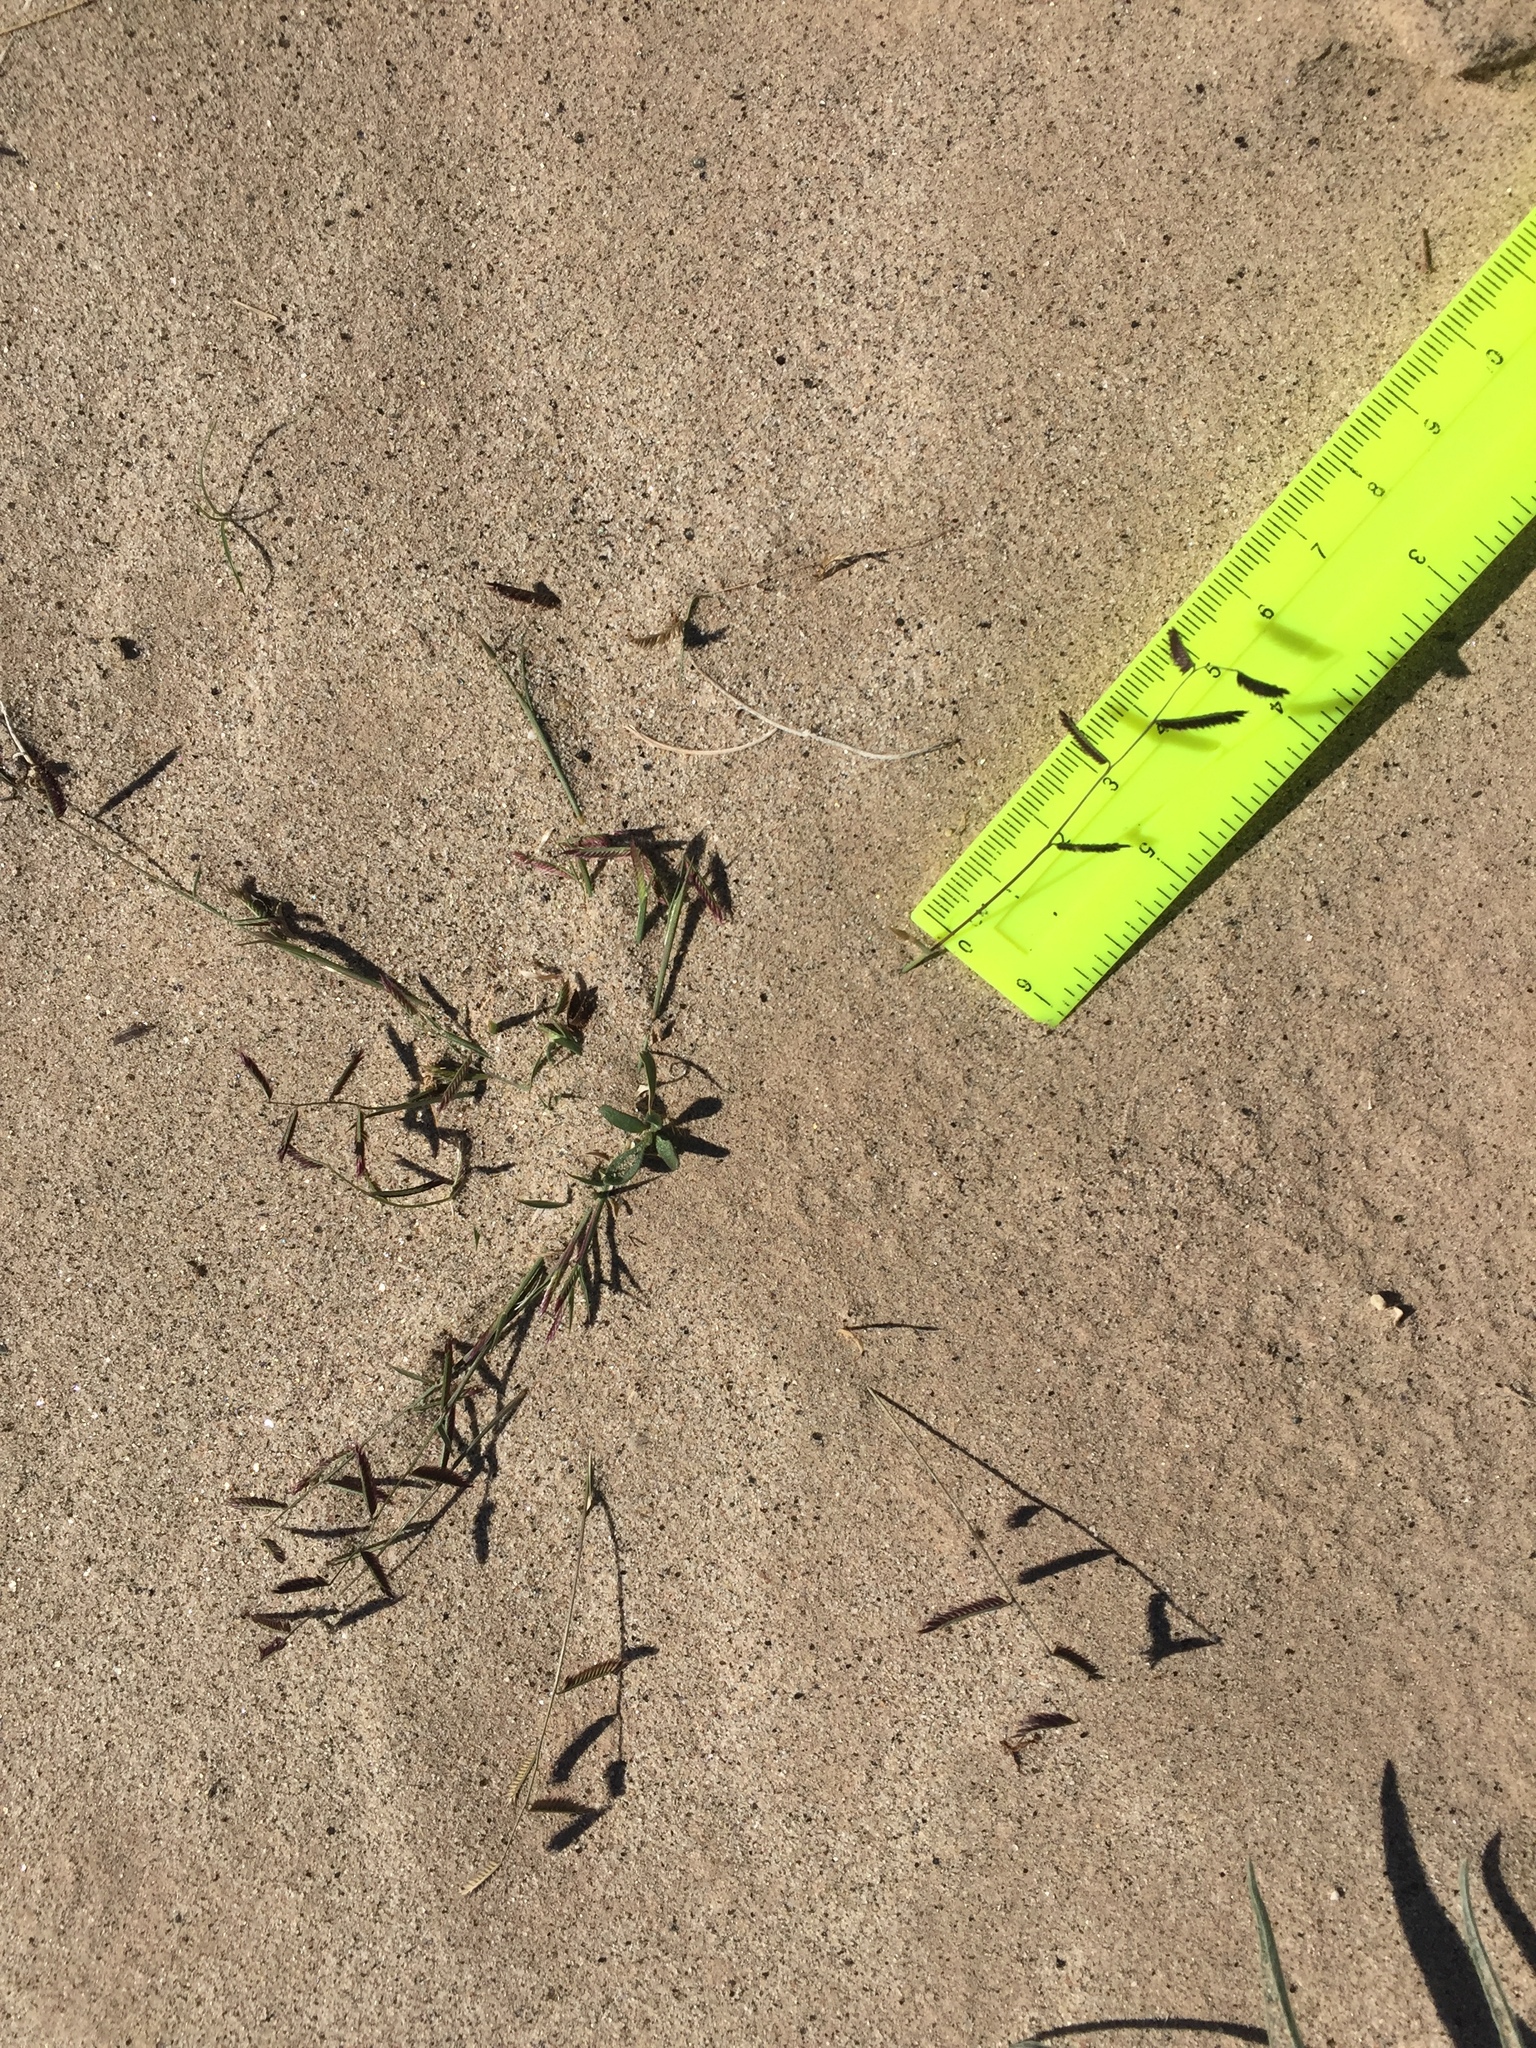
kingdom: Plantae
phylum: Tracheophyta
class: Liliopsida
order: Poales
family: Poaceae
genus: Bouteloua
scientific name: Bouteloua barbata
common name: Six-weeks grama
